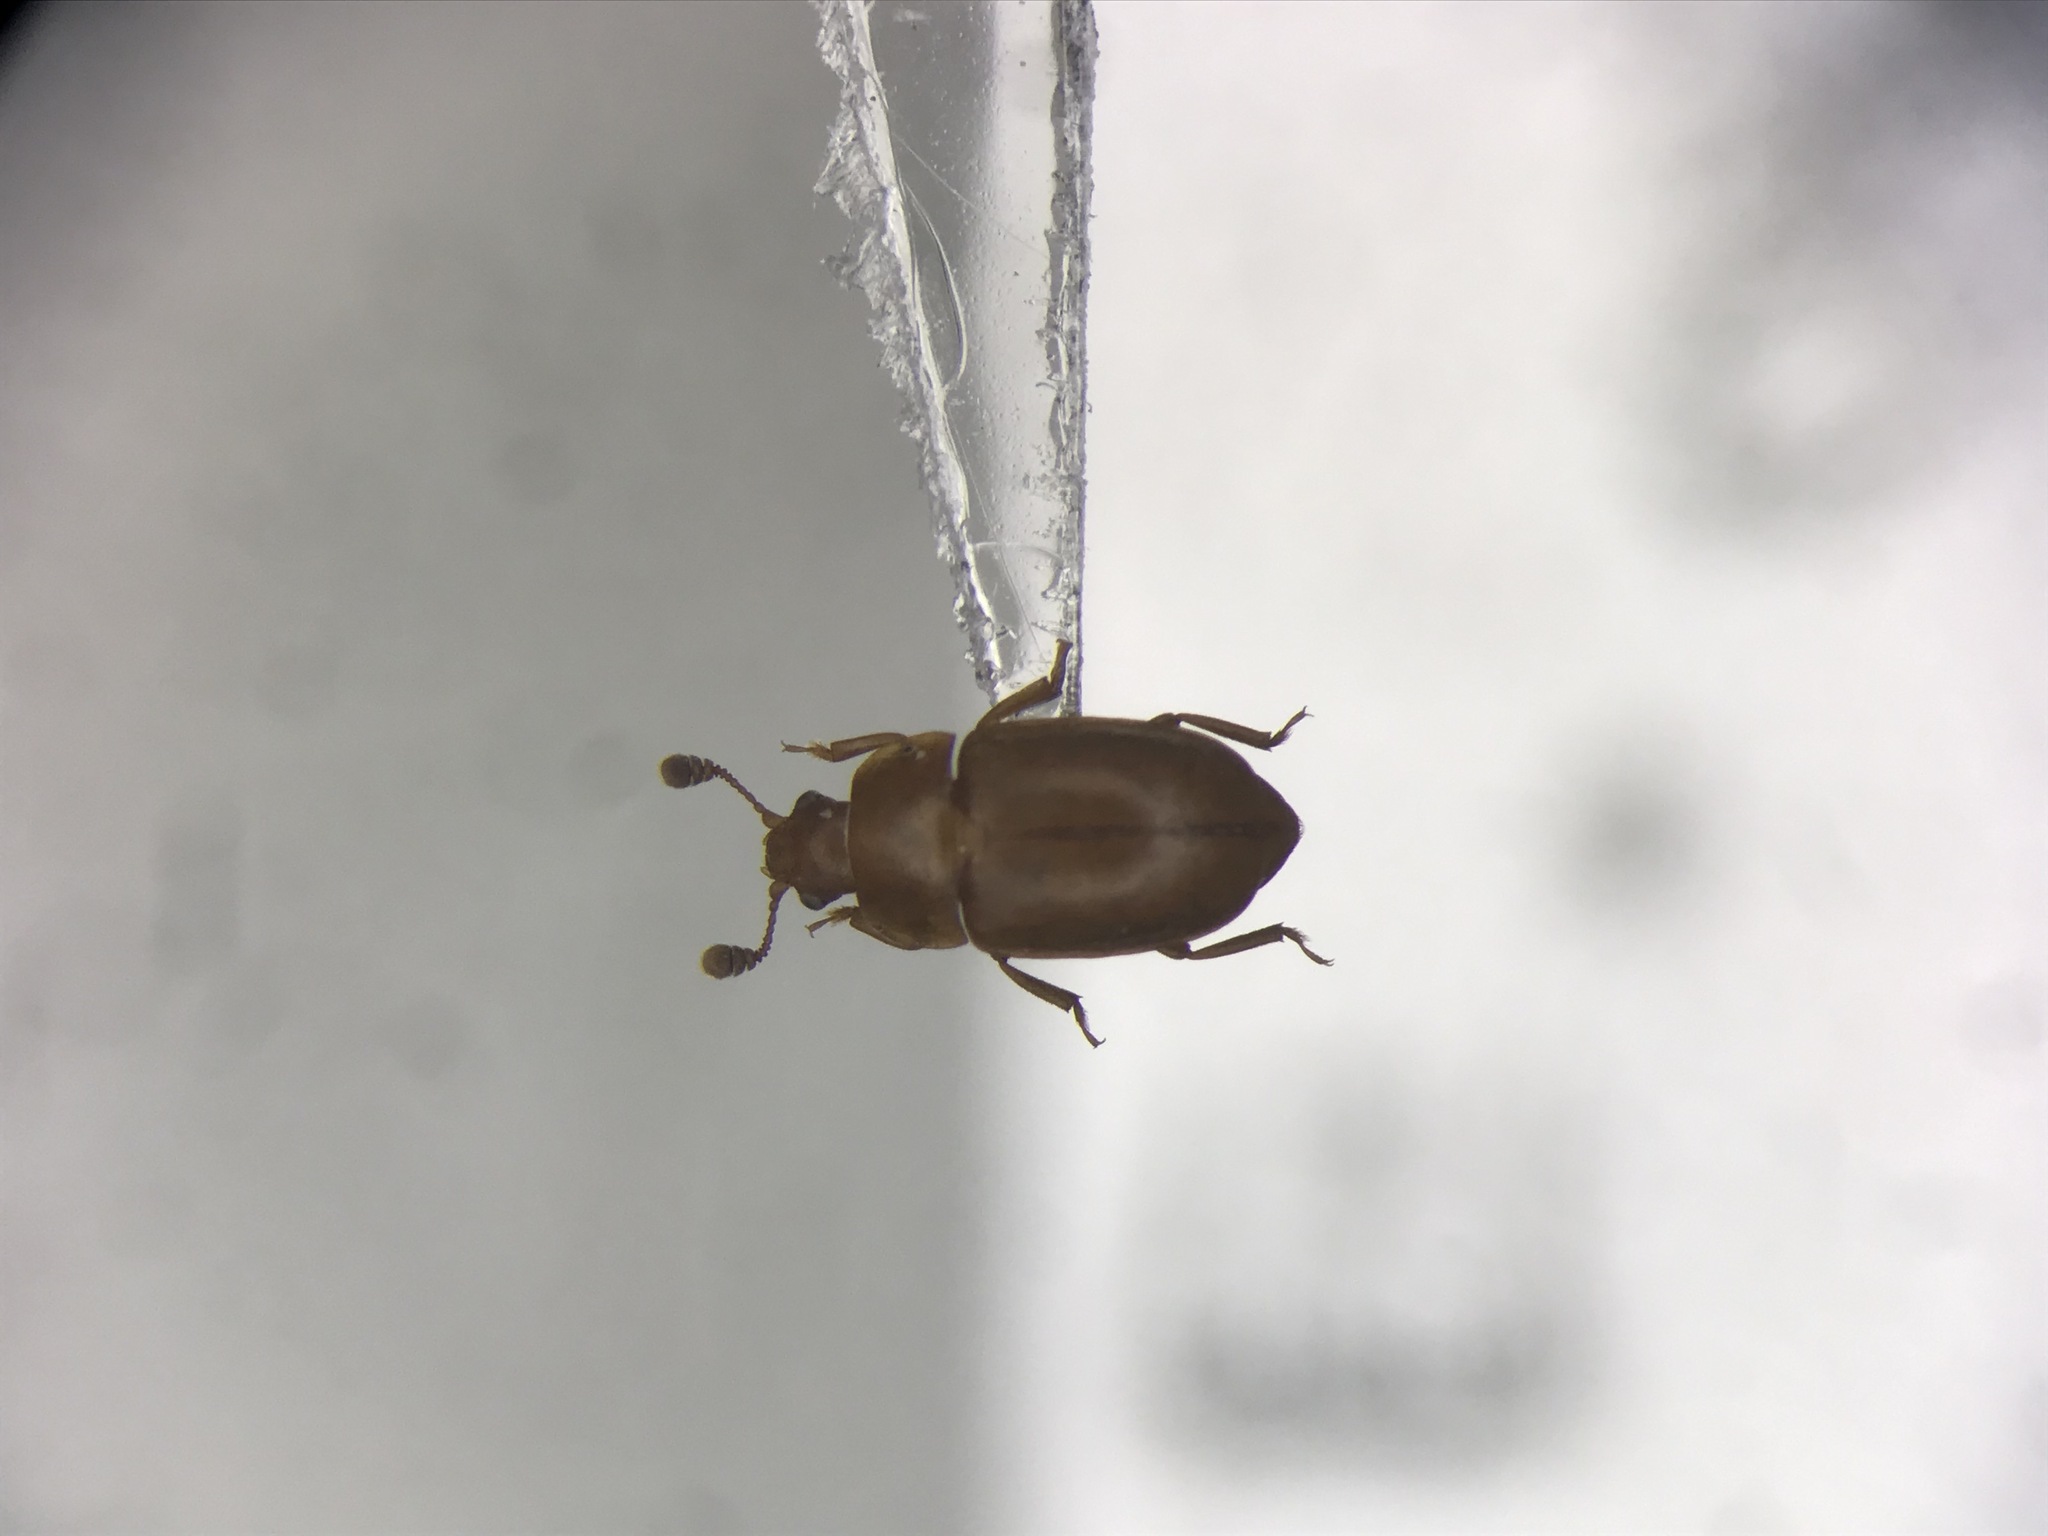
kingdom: Animalia
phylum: Arthropoda
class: Insecta
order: Coleoptera
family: Nitidulidae
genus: Epuraea
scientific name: Epuraea aestiva
